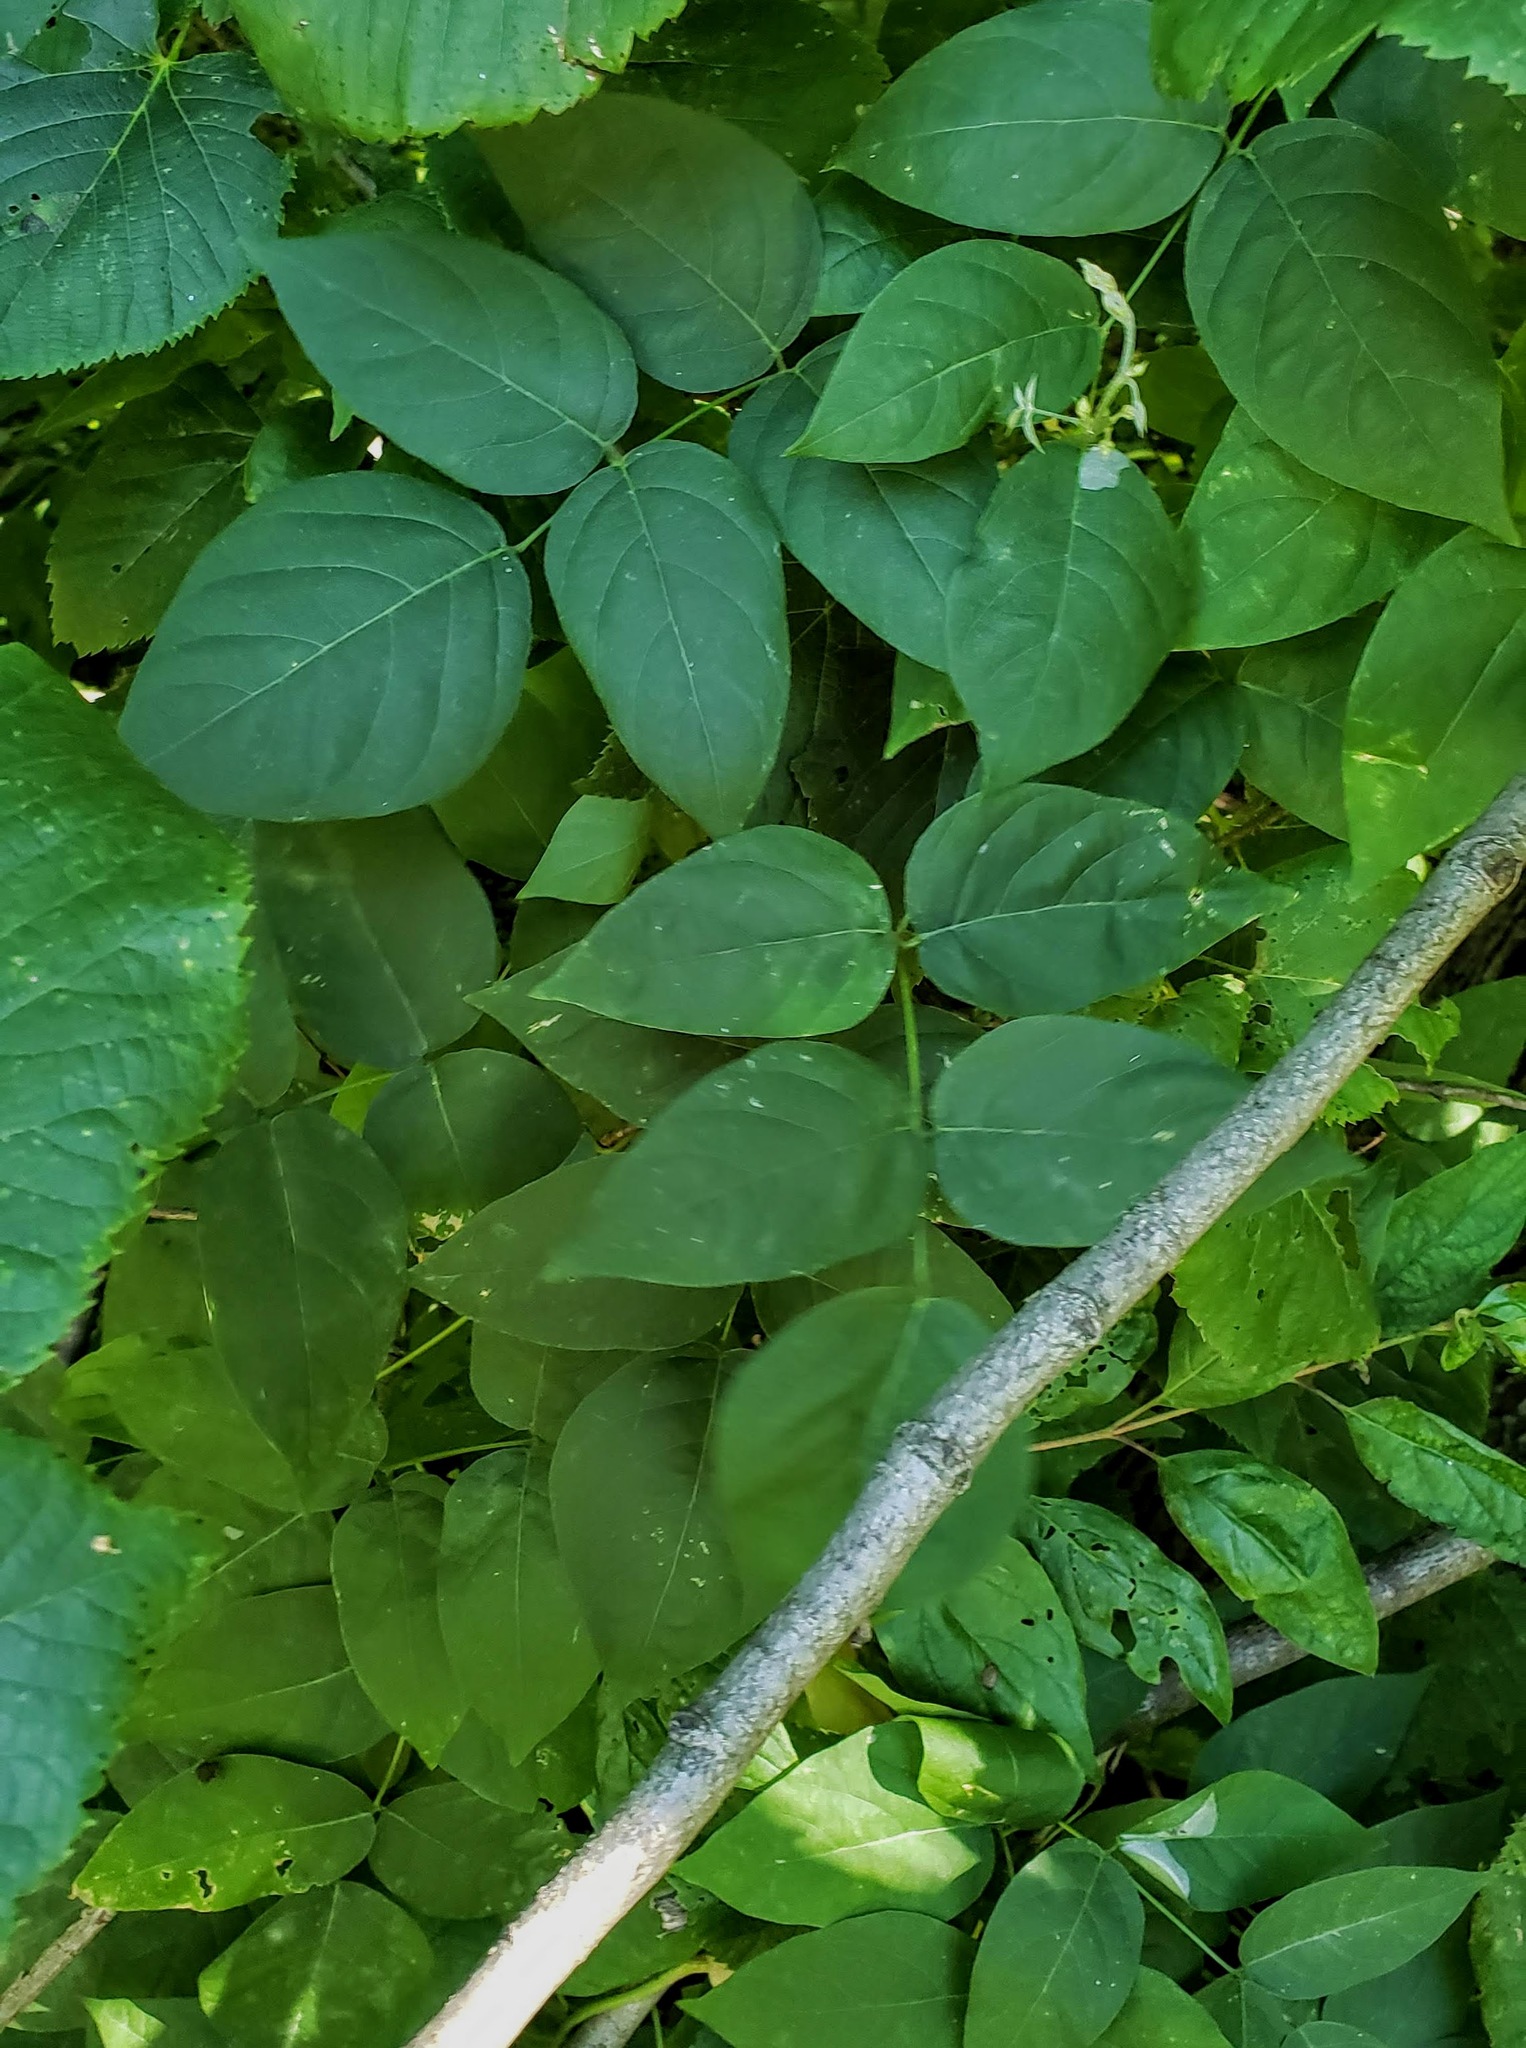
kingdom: Plantae
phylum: Tracheophyta
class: Magnoliopsida
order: Fabales
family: Fabaceae
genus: Apios
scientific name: Apios americana
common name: American potato-bean
